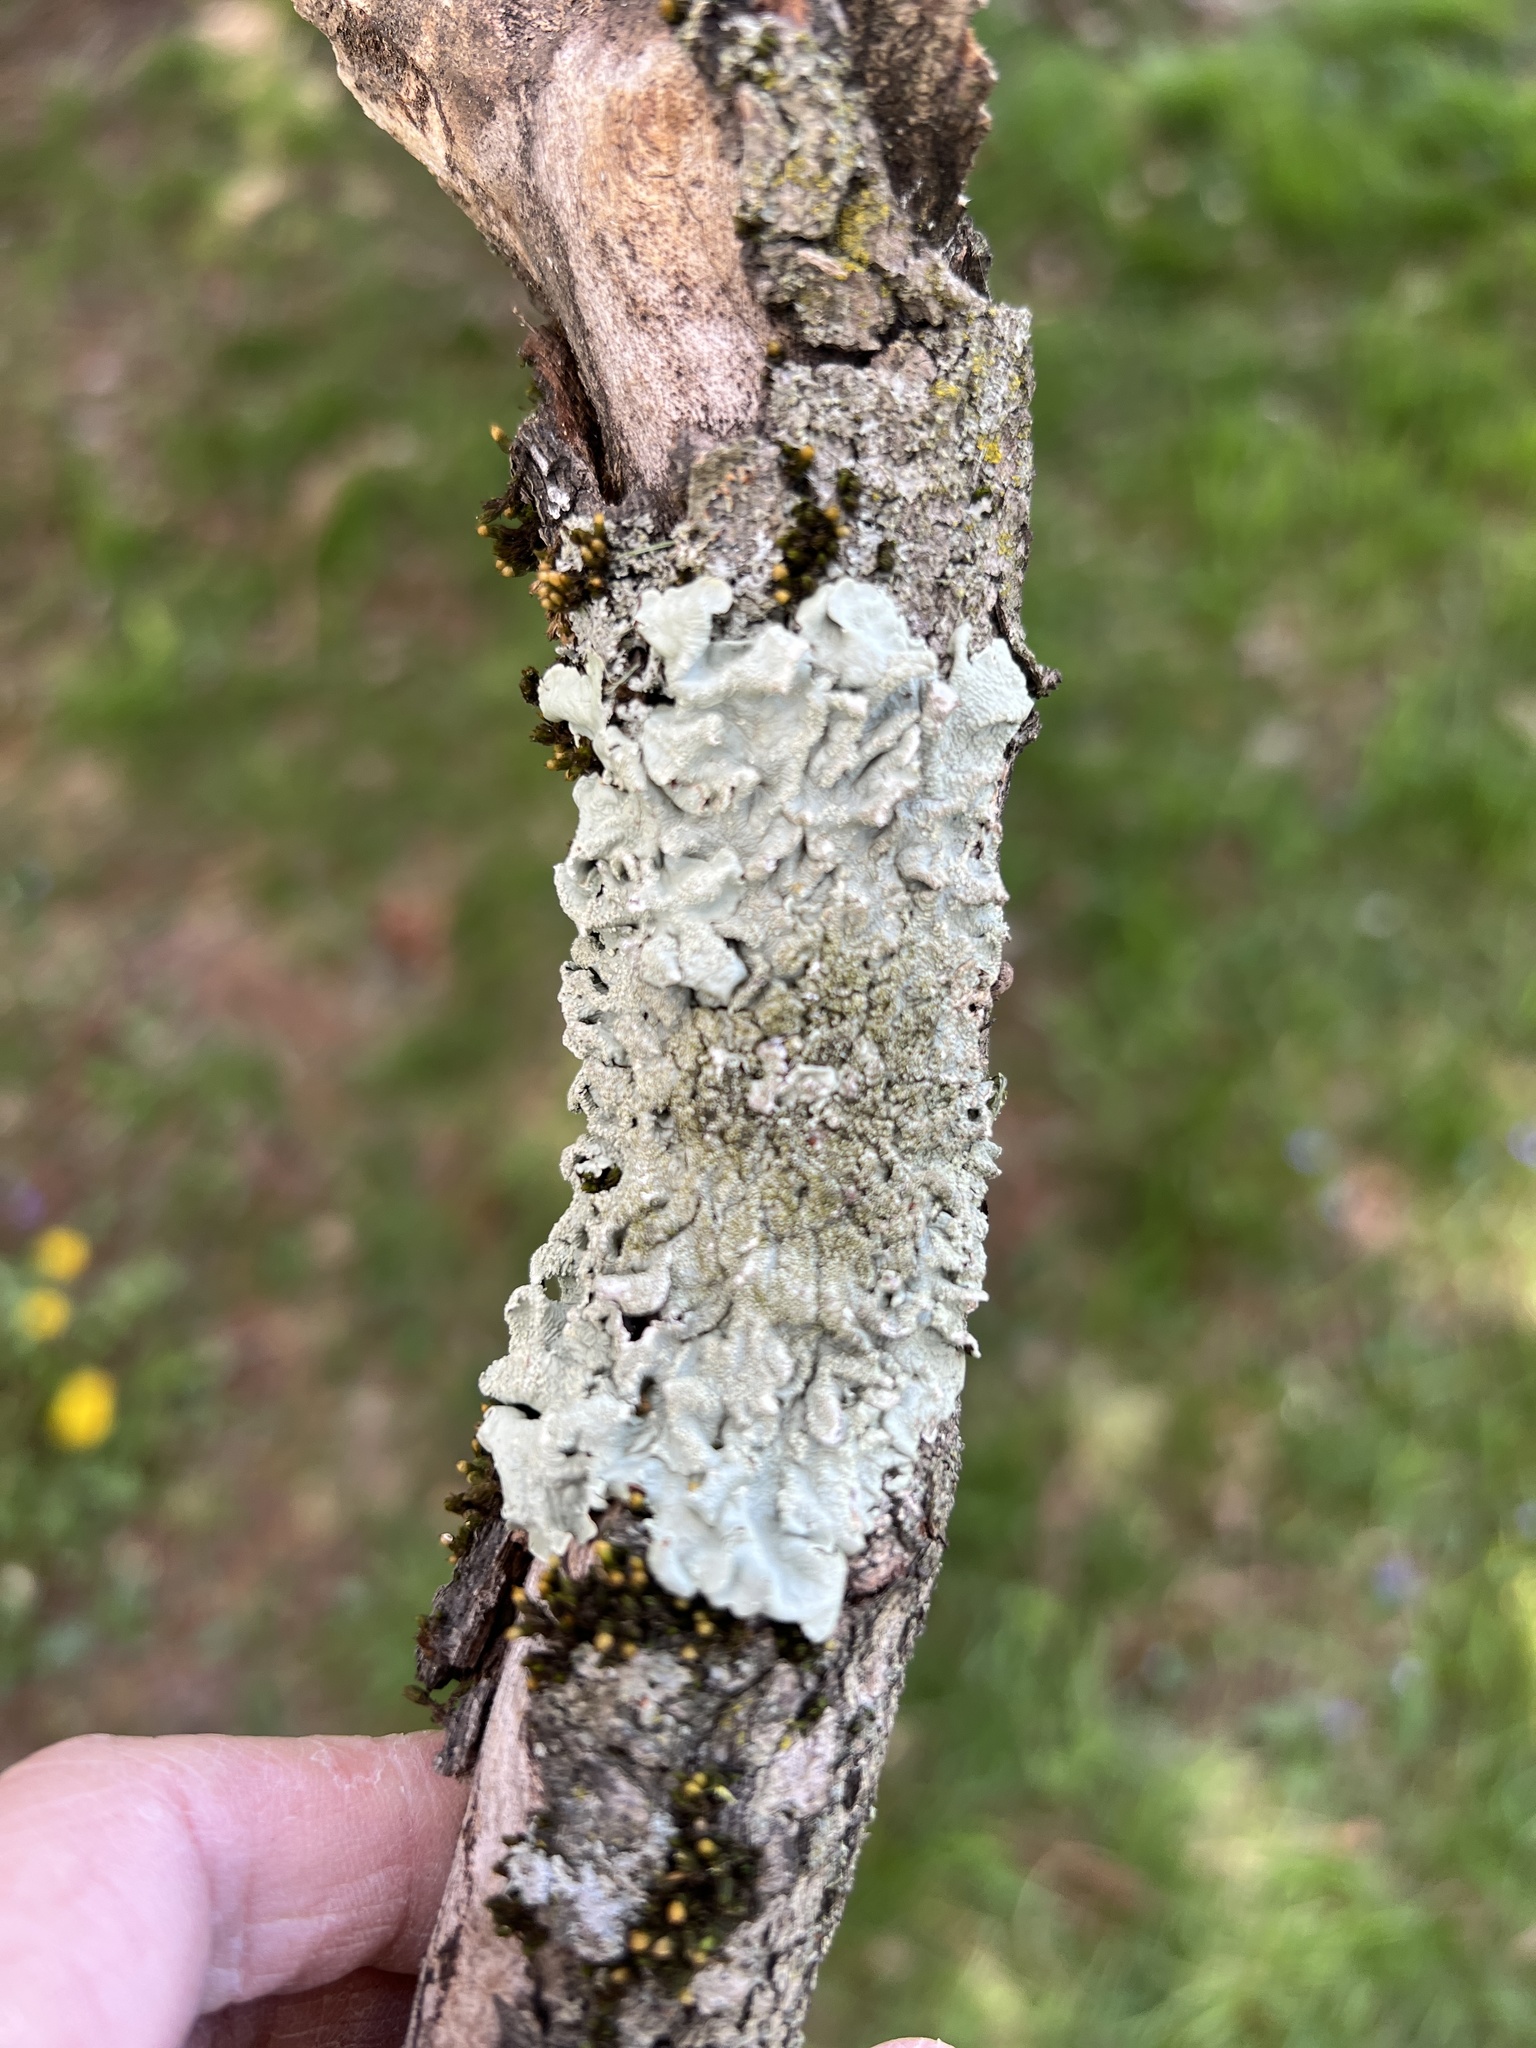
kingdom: Fungi
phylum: Ascomycota
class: Lecanoromycetes
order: Lecanorales
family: Parmeliaceae
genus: Flavoparmelia
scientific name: Flavoparmelia caperata
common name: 40-mile per hour lichen
